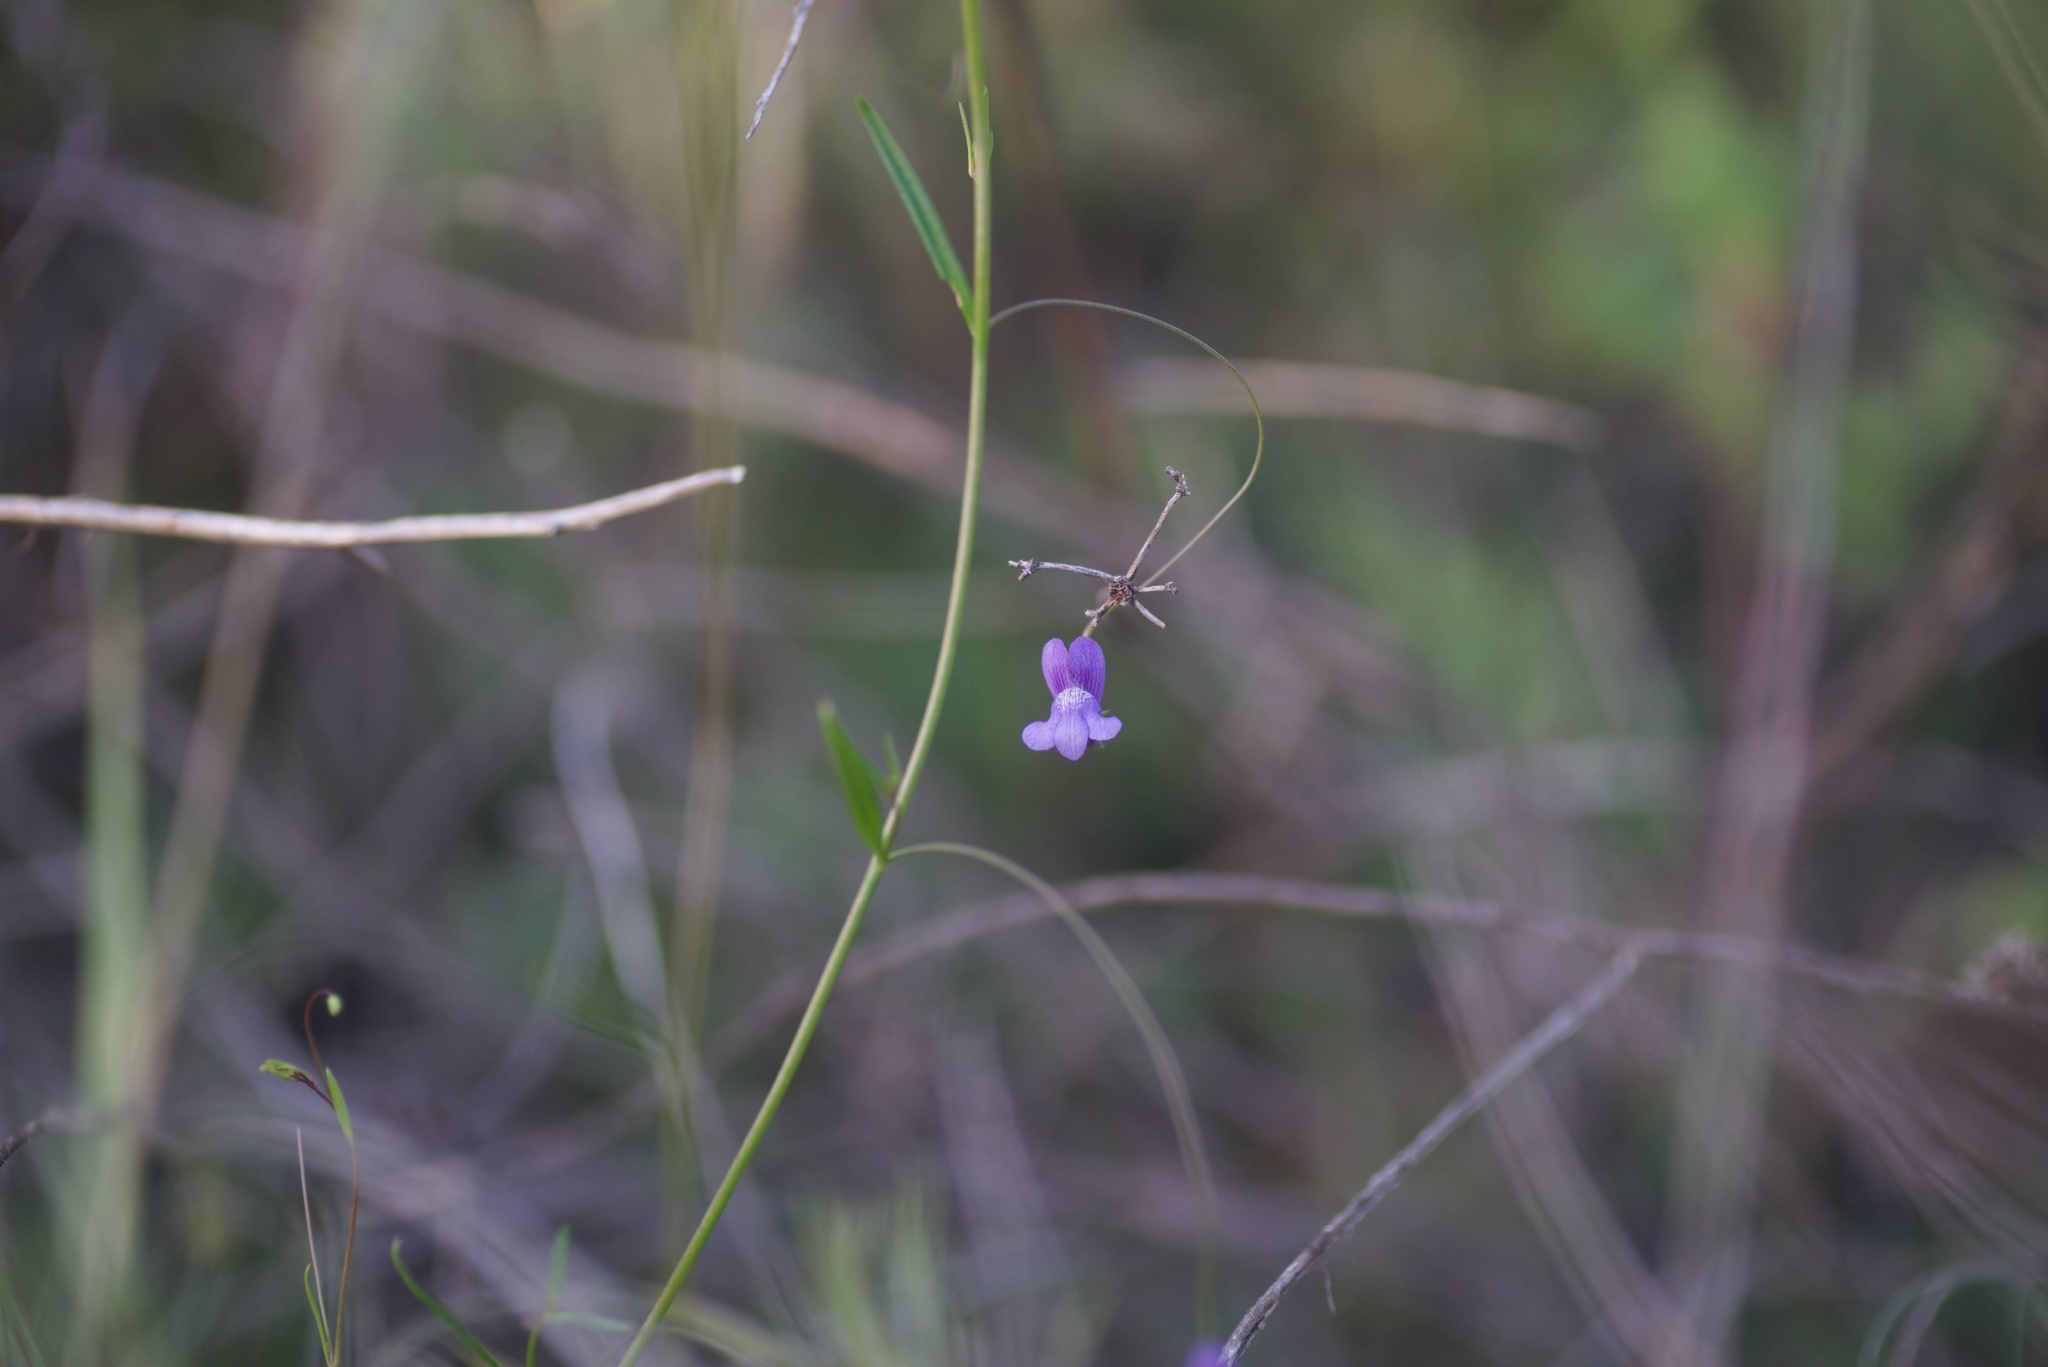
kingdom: Plantae
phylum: Tracheophyta
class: Magnoliopsida
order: Lamiales
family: Plantaginaceae
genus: Neogaerrhinum
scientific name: Neogaerrhinum strictum
